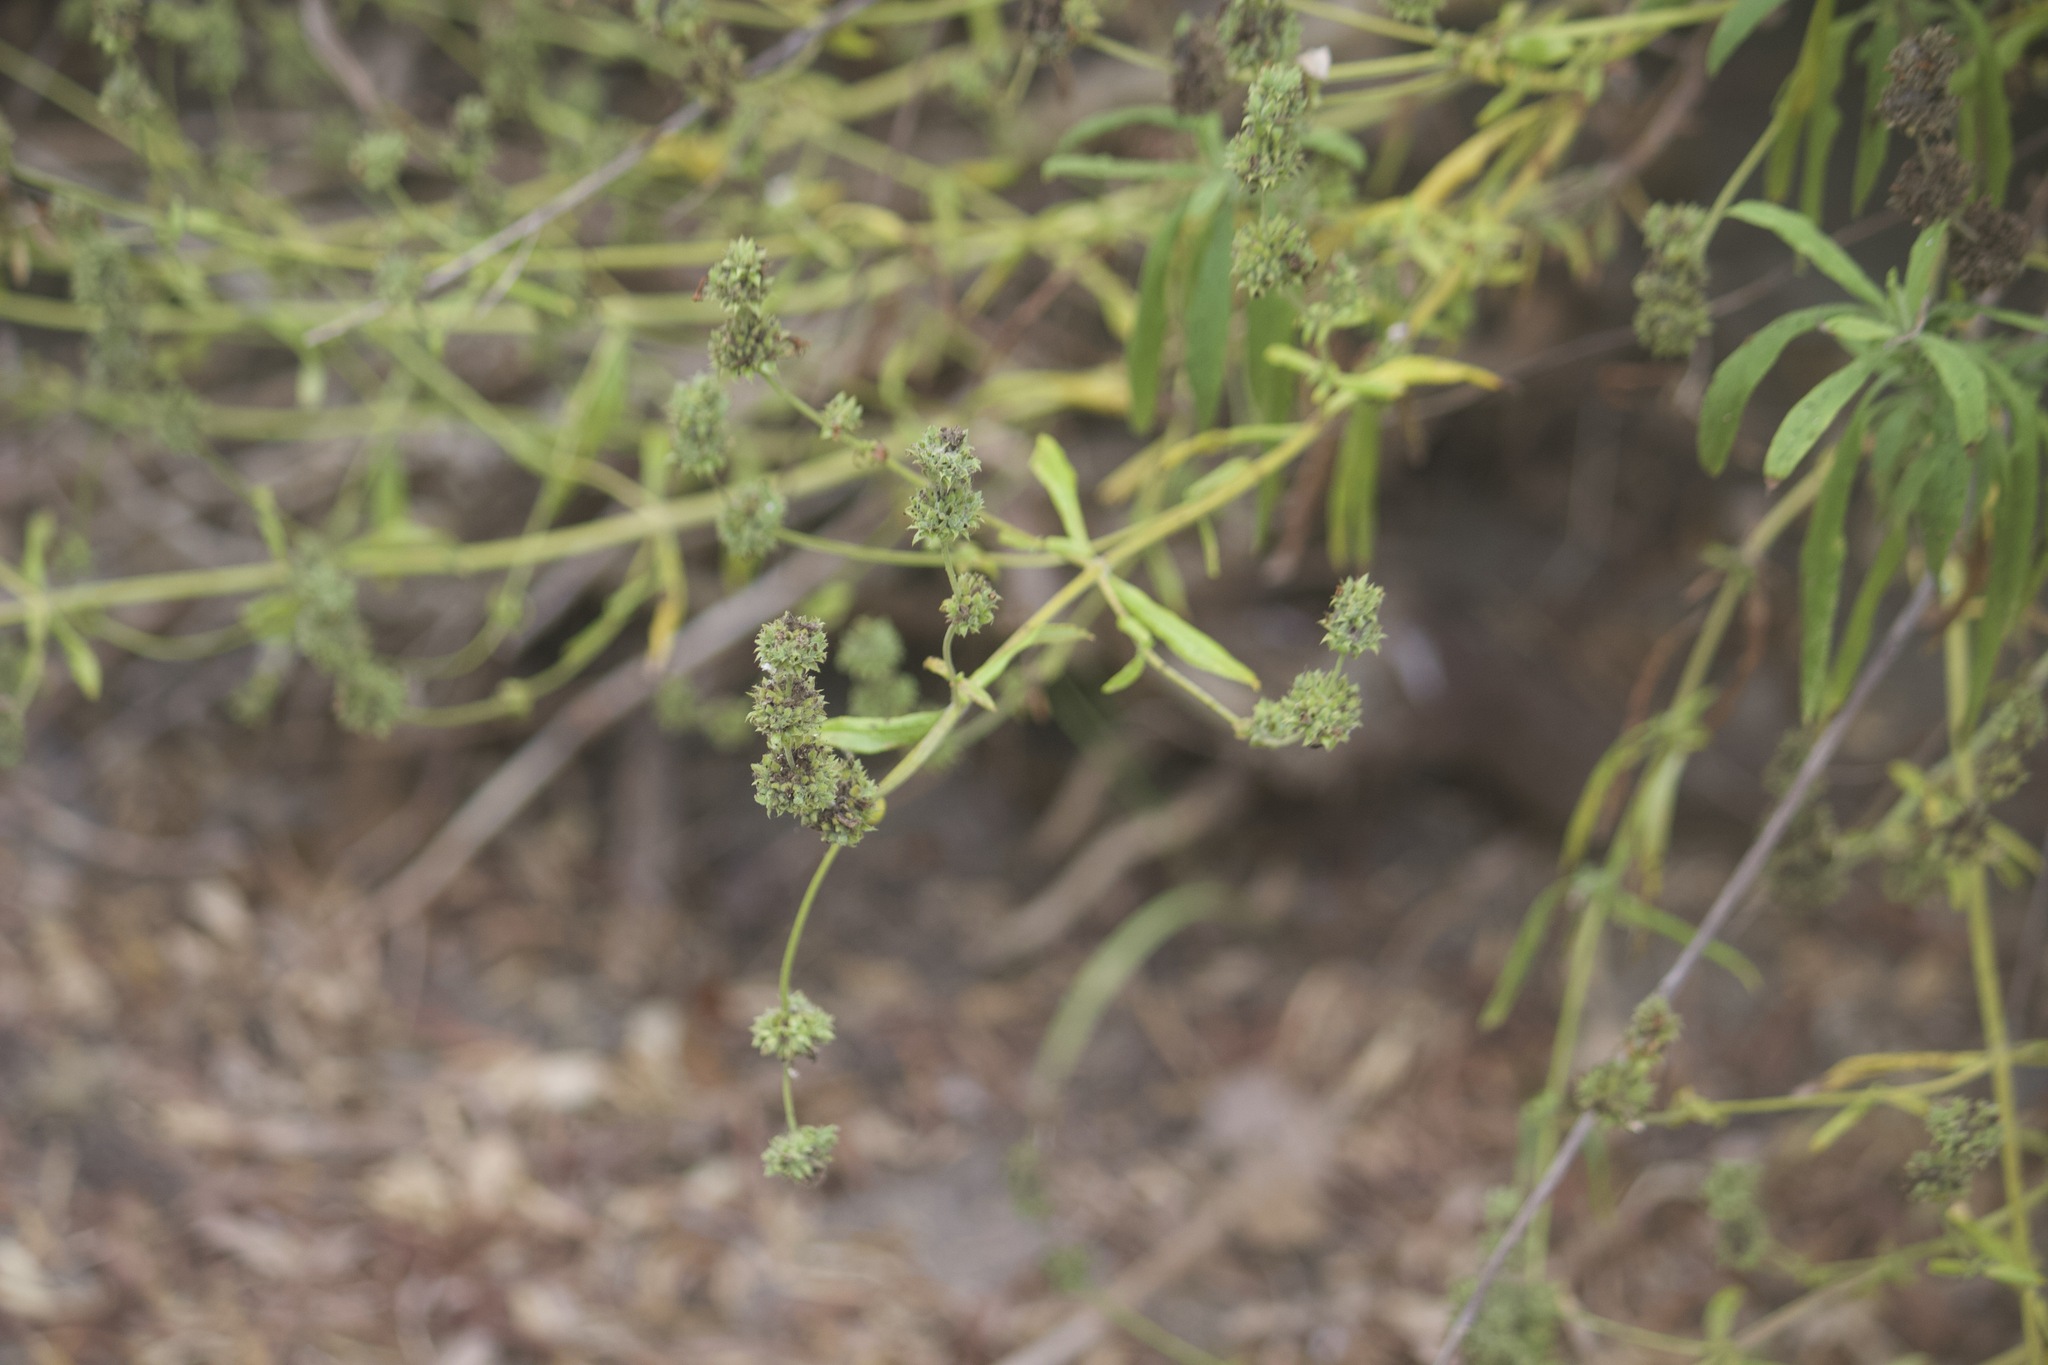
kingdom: Plantae
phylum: Tracheophyta
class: Magnoliopsida
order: Lamiales
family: Lamiaceae
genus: Salvia
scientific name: Salvia mellifera
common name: Black sage
